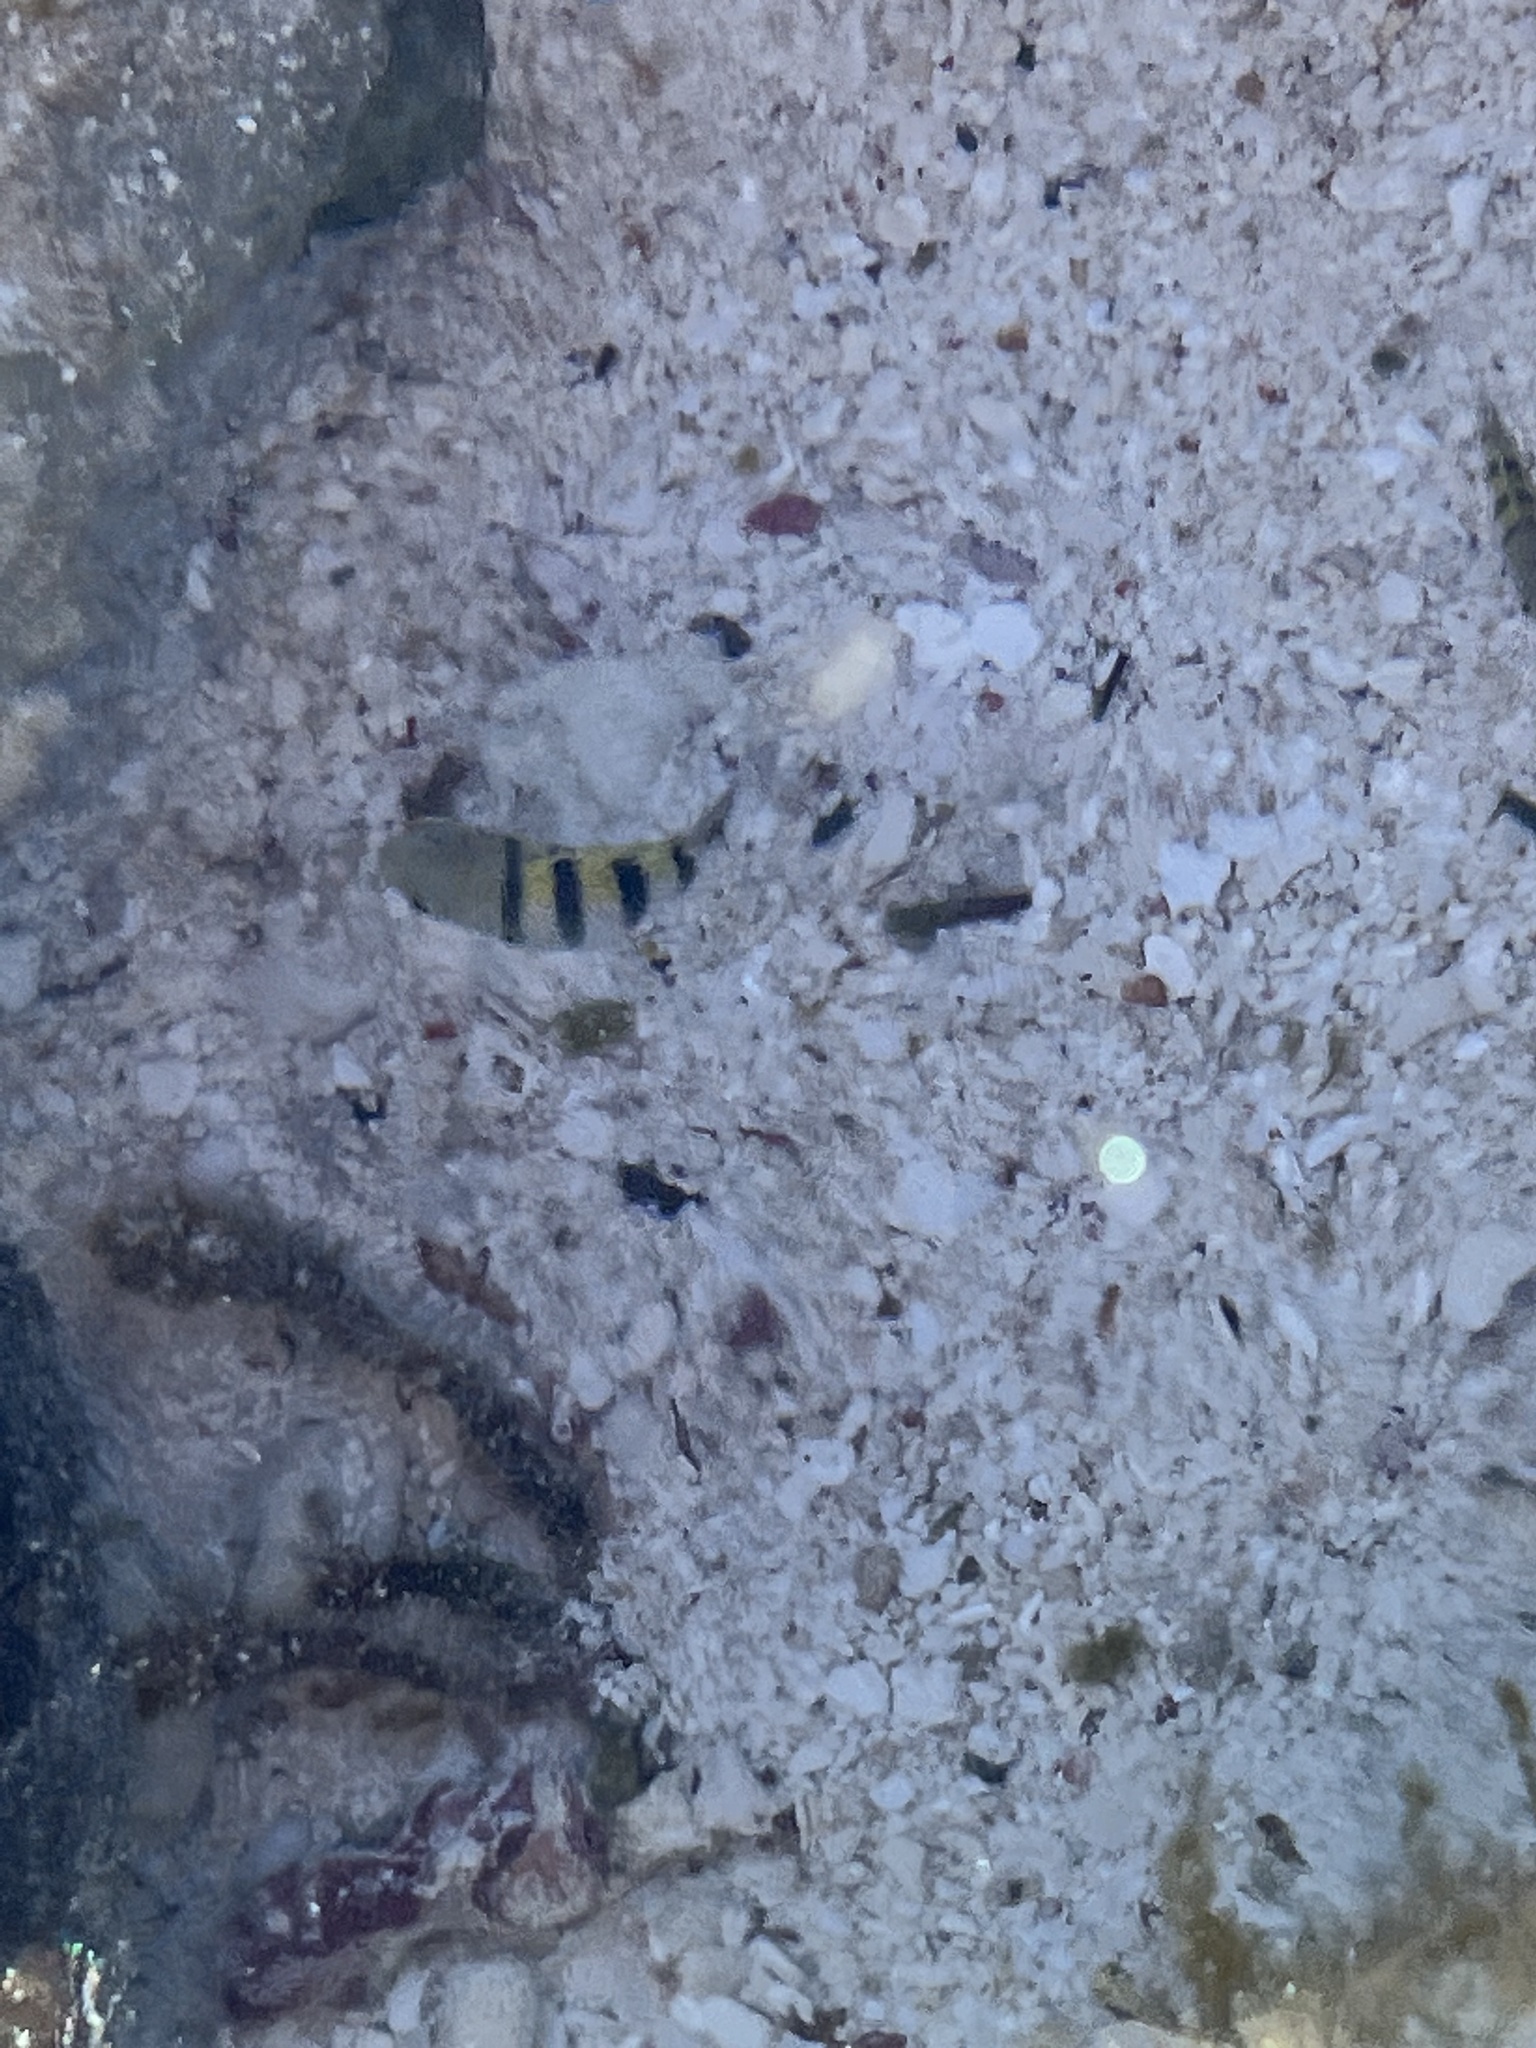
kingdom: Animalia
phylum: Chordata
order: Perciformes
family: Pomacentridae
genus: Abudefduf
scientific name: Abudefduf saxatilis
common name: Sergeant major
